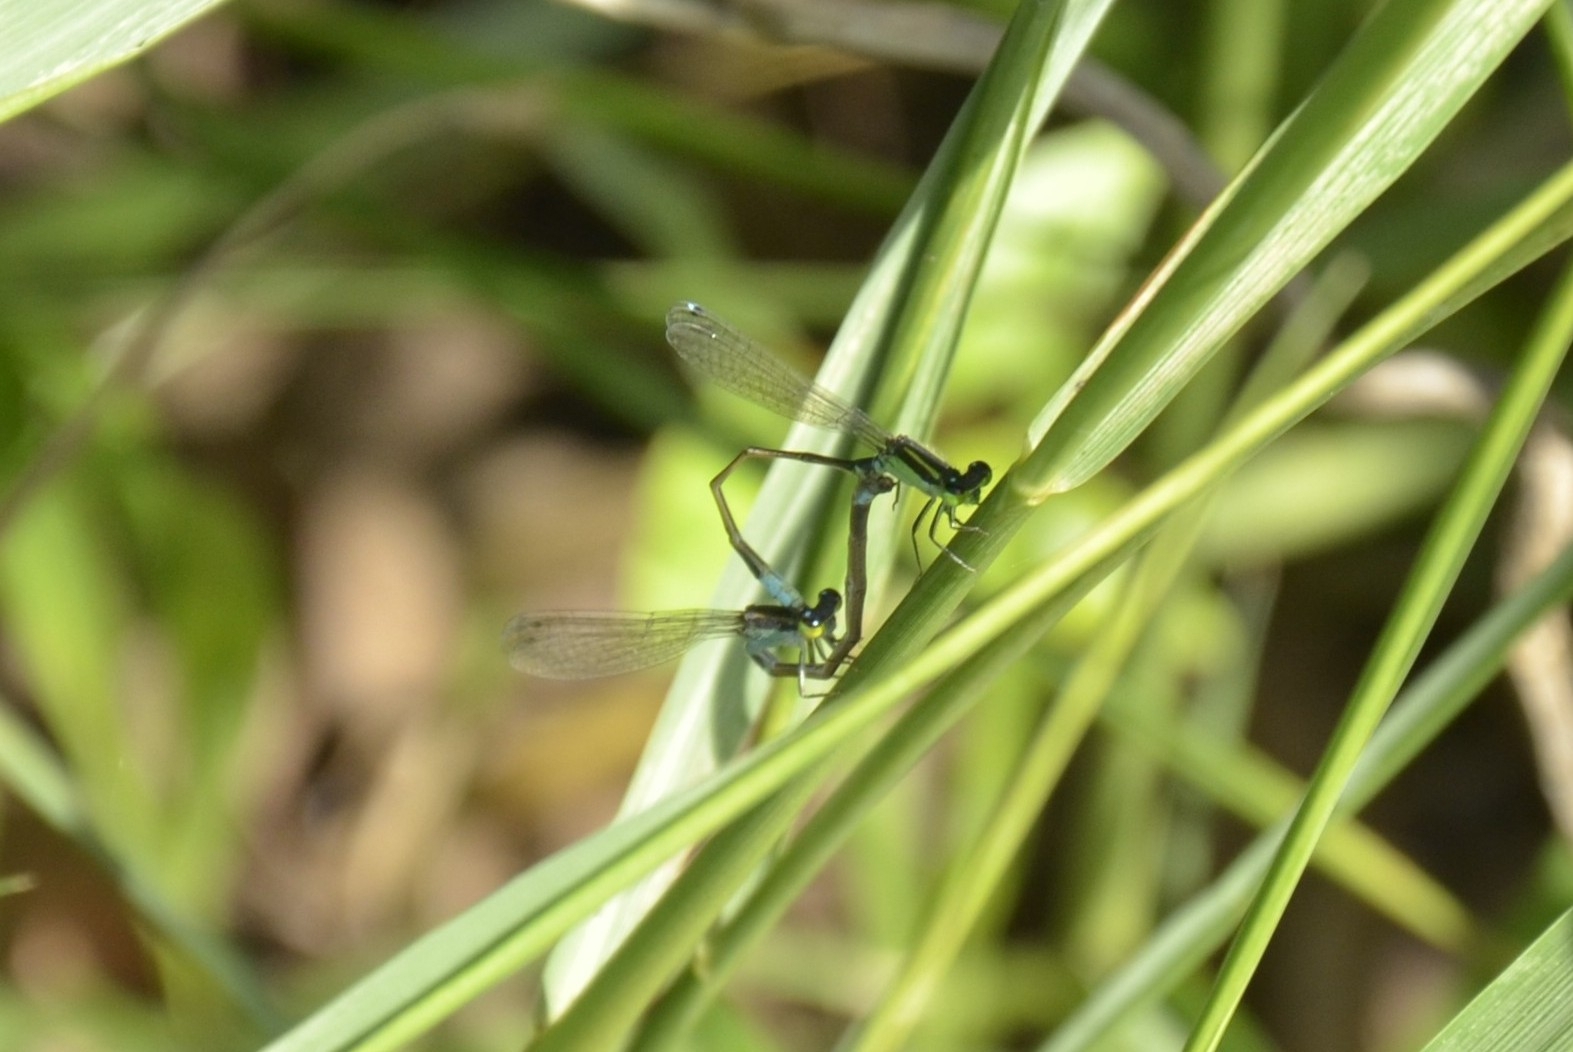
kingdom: Animalia
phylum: Arthropoda
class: Insecta
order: Odonata
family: Coenagrionidae
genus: Ischnura
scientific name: Ischnura senegalensis
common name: Tropical bluetail
